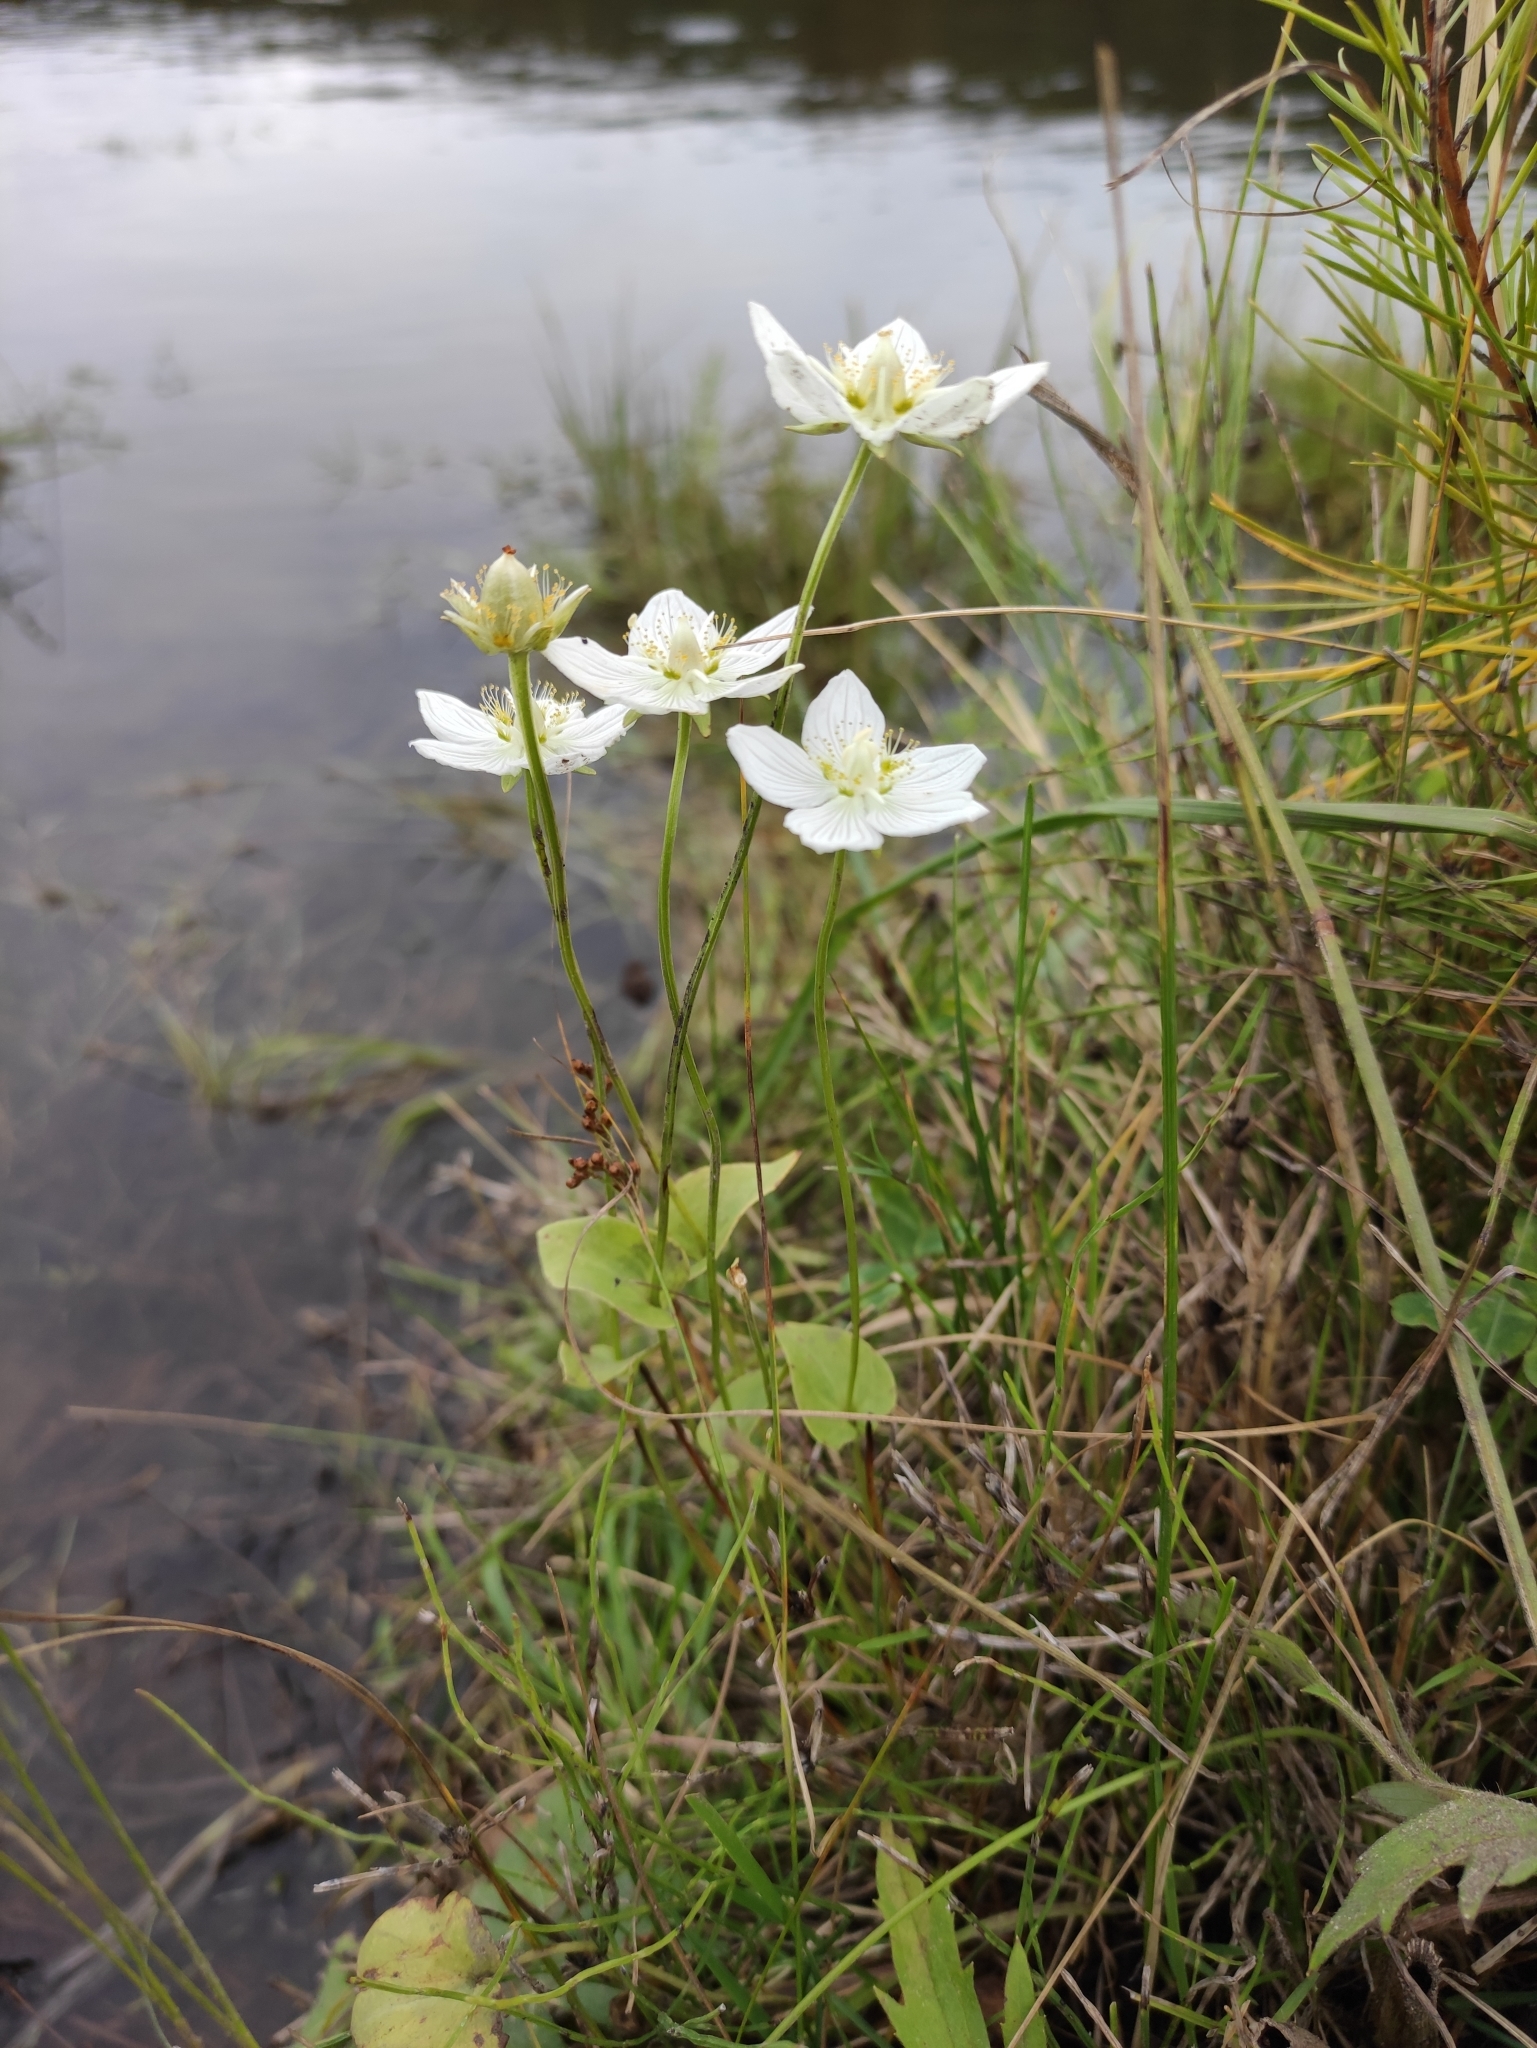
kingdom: Plantae
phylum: Tracheophyta
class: Magnoliopsida
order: Celastrales
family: Parnassiaceae
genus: Parnassia
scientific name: Parnassia palustris
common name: Grass-of-parnassus
